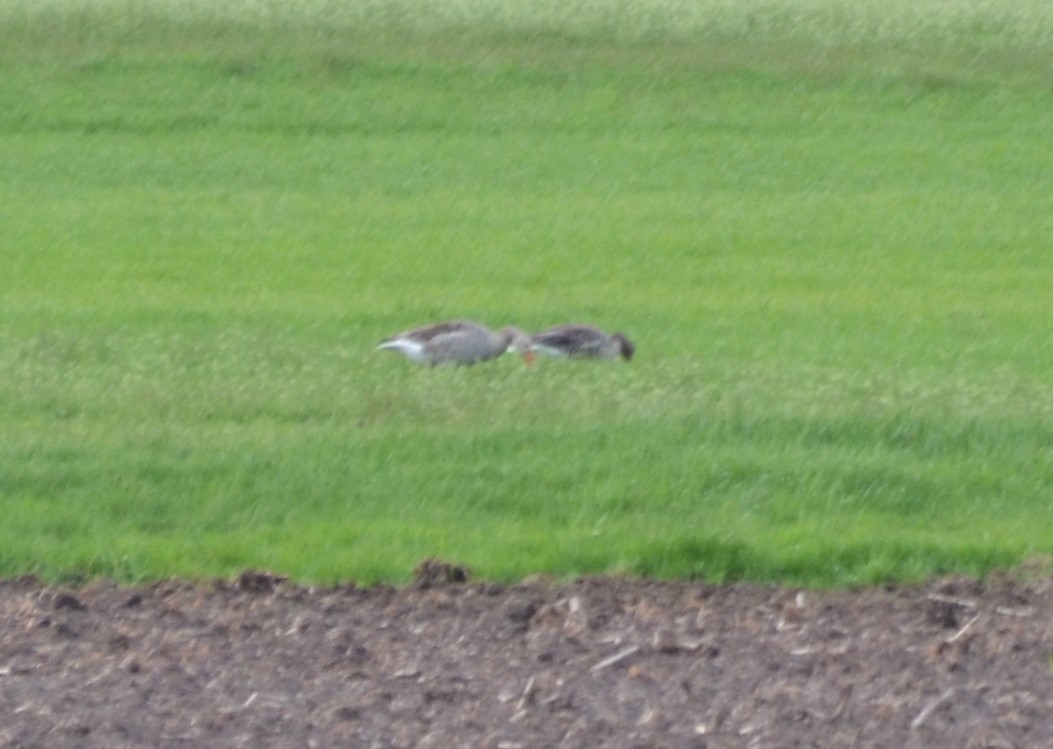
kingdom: Animalia
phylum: Chordata
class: Aves
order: Anseriformes
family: Anatidae
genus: Anser
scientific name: Anser anser
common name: Greylag goose
